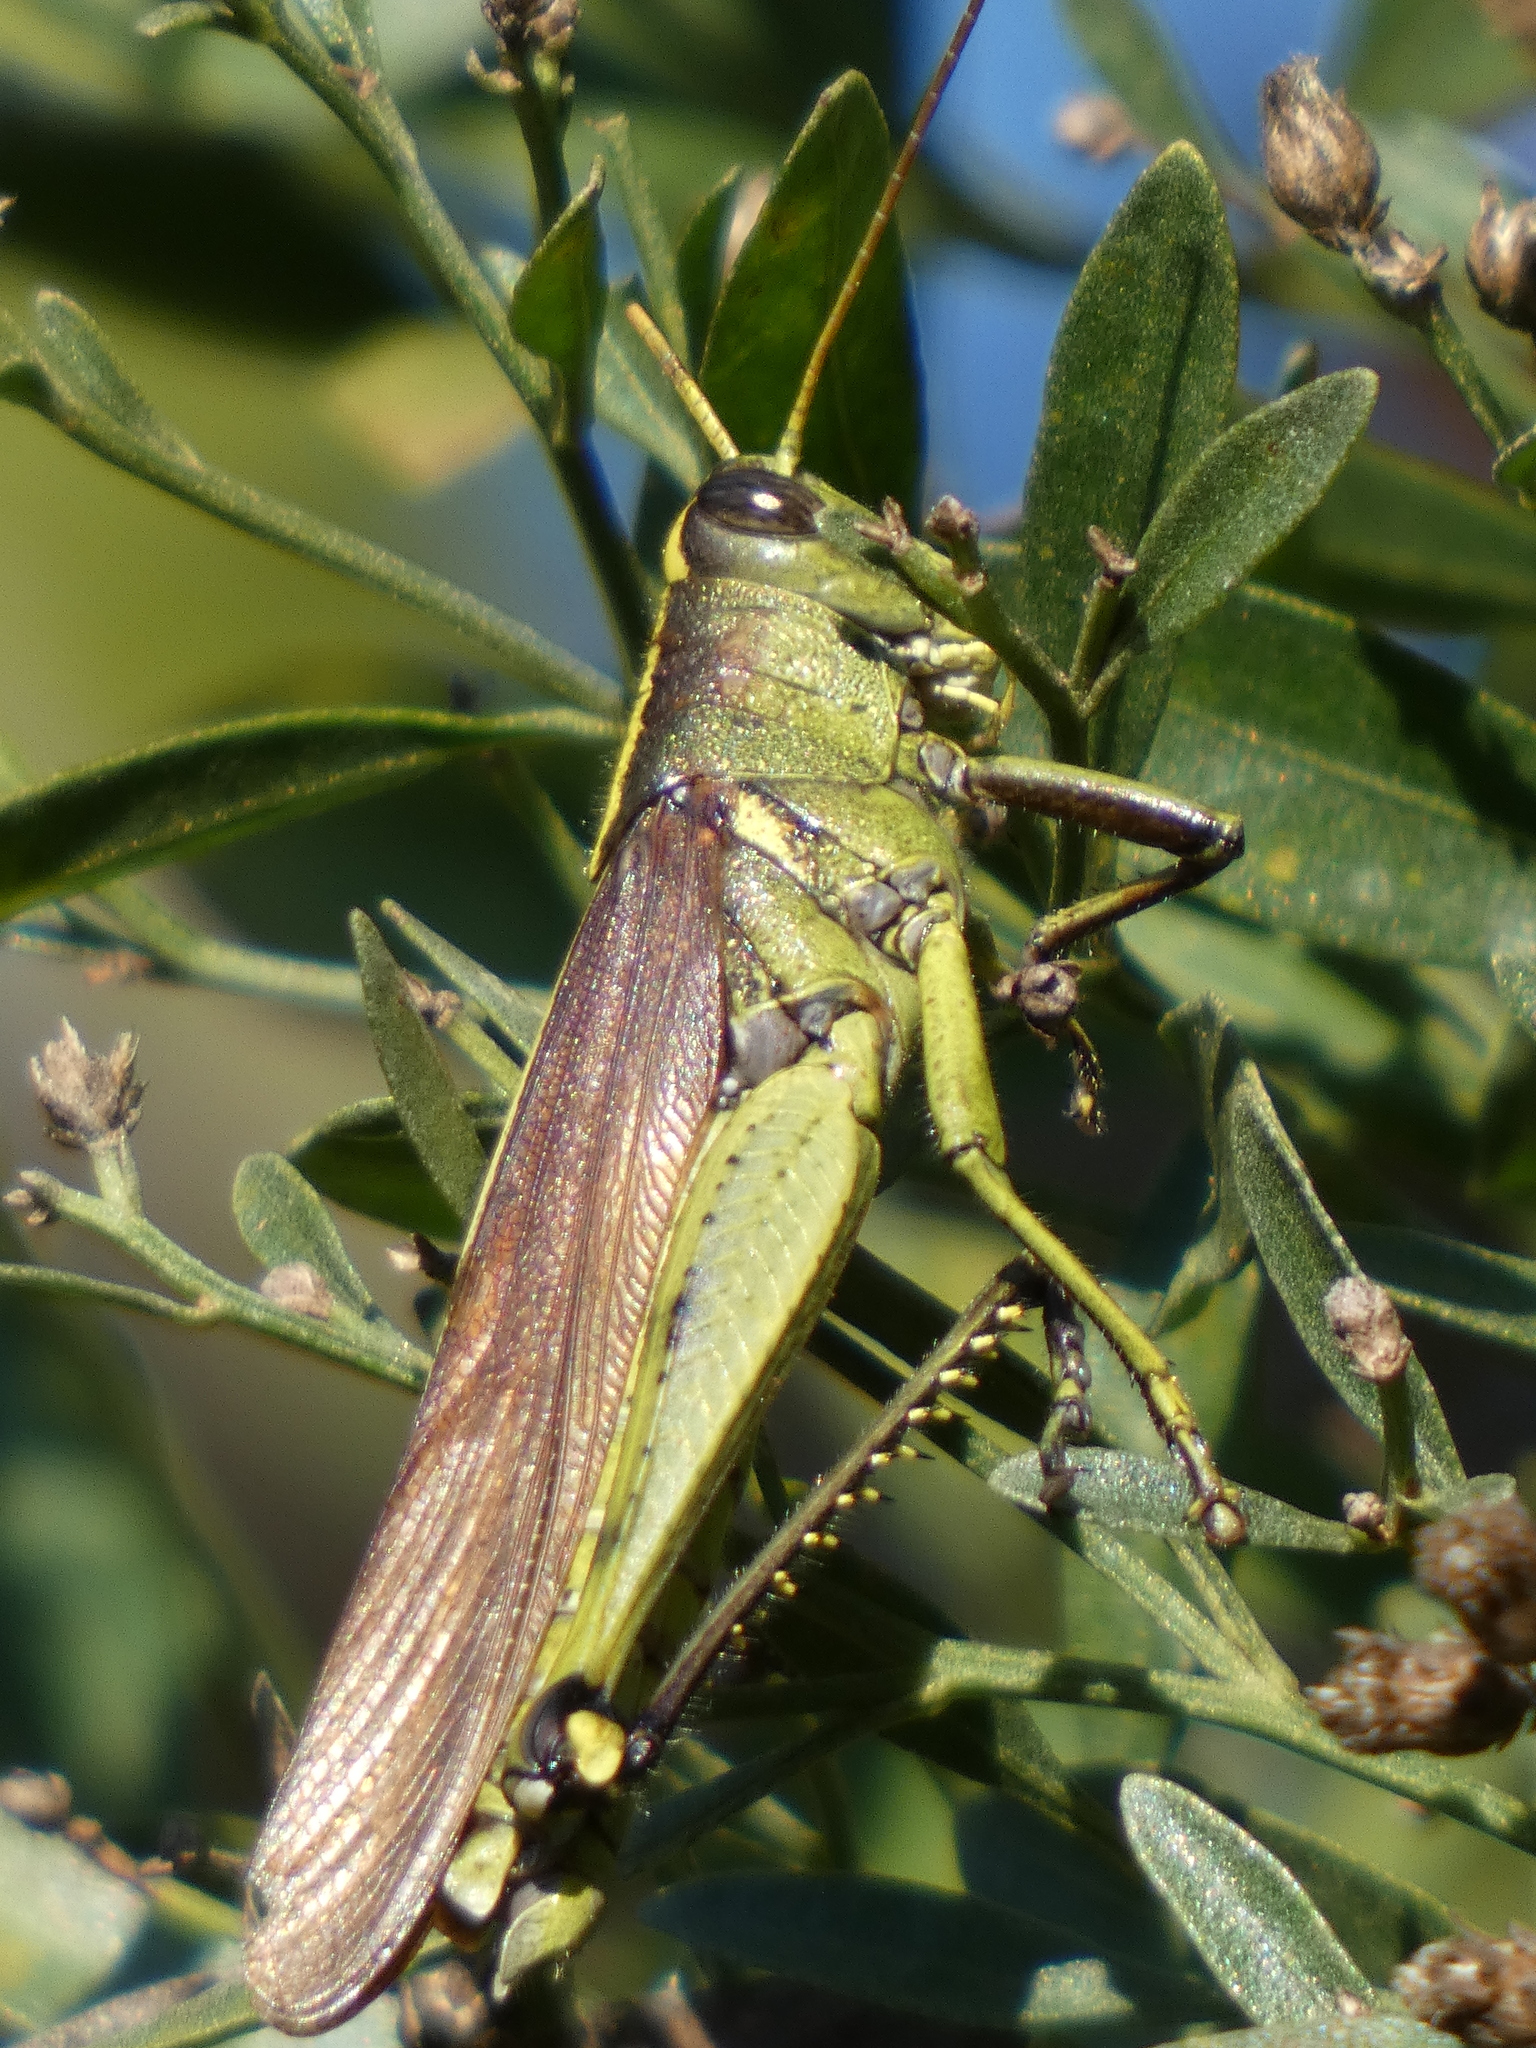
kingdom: Animalia
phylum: Arthropoda
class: Insecta
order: Orthoptera
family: Acrididae
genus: Schistocerca
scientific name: Schistocerca obscura
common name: Obscure bird grasshopper
